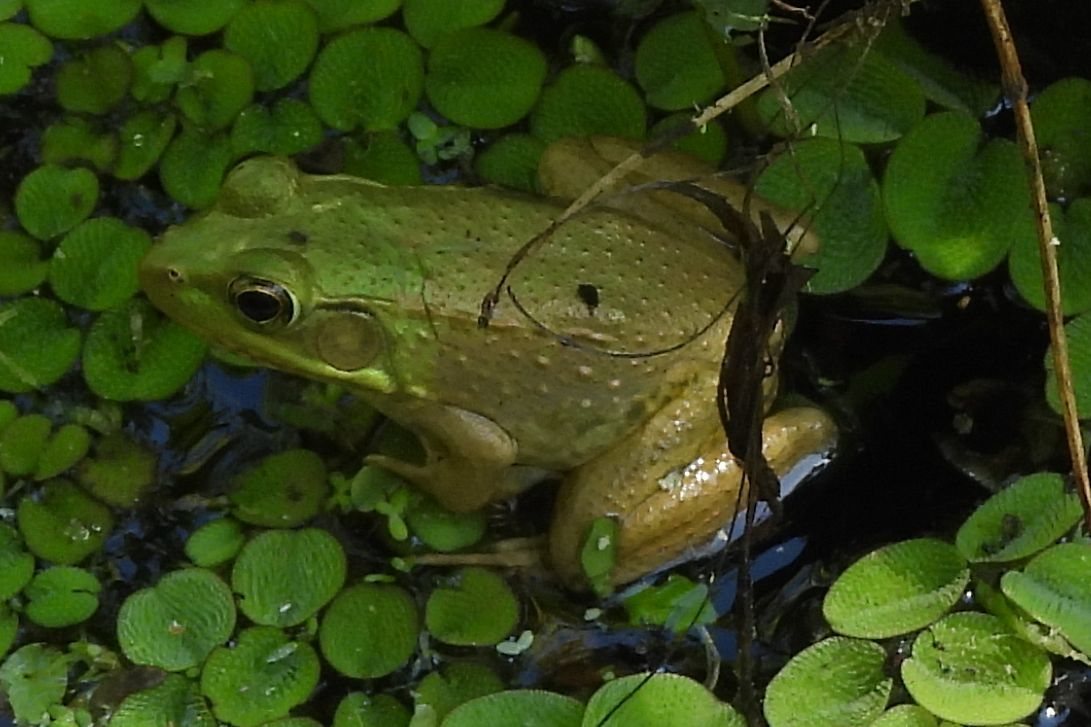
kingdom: Animalia
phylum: Chordata
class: Amphibia
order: Anura
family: Ranidae
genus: Lithobates
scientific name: Lithobates clamitans
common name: Green frog
